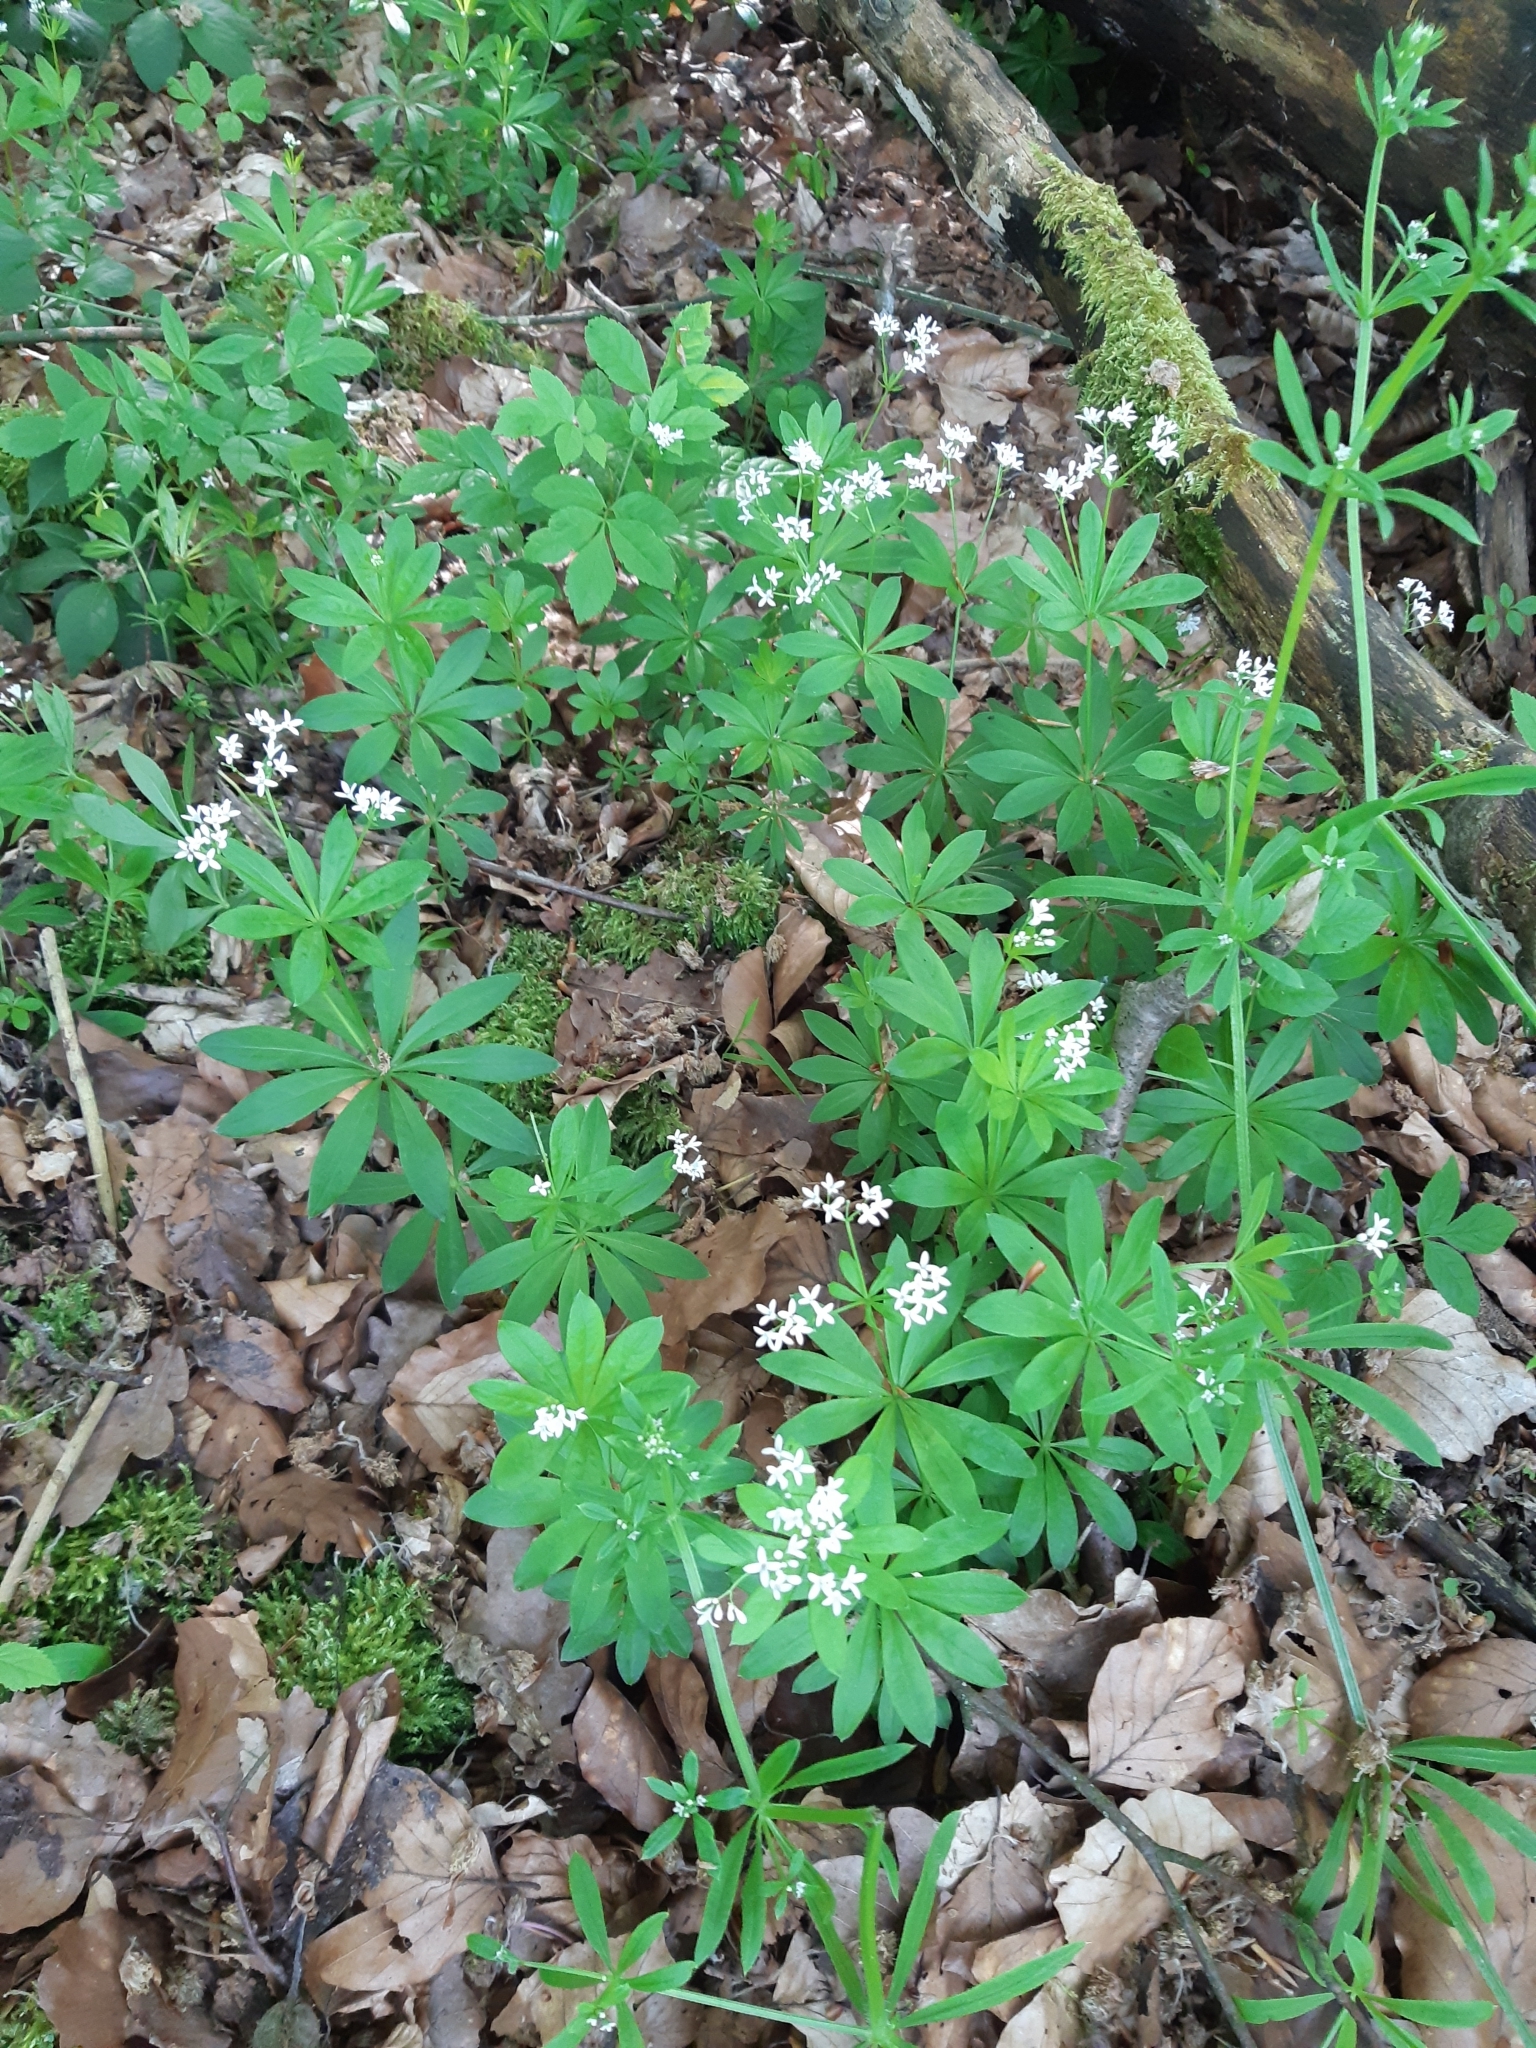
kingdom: Plantae
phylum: Tracheophyta
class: Magnoliopsida
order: Gentianales
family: Rubiaceae
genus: Galium
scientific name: Galium odoratum
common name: Sweet woodruff
